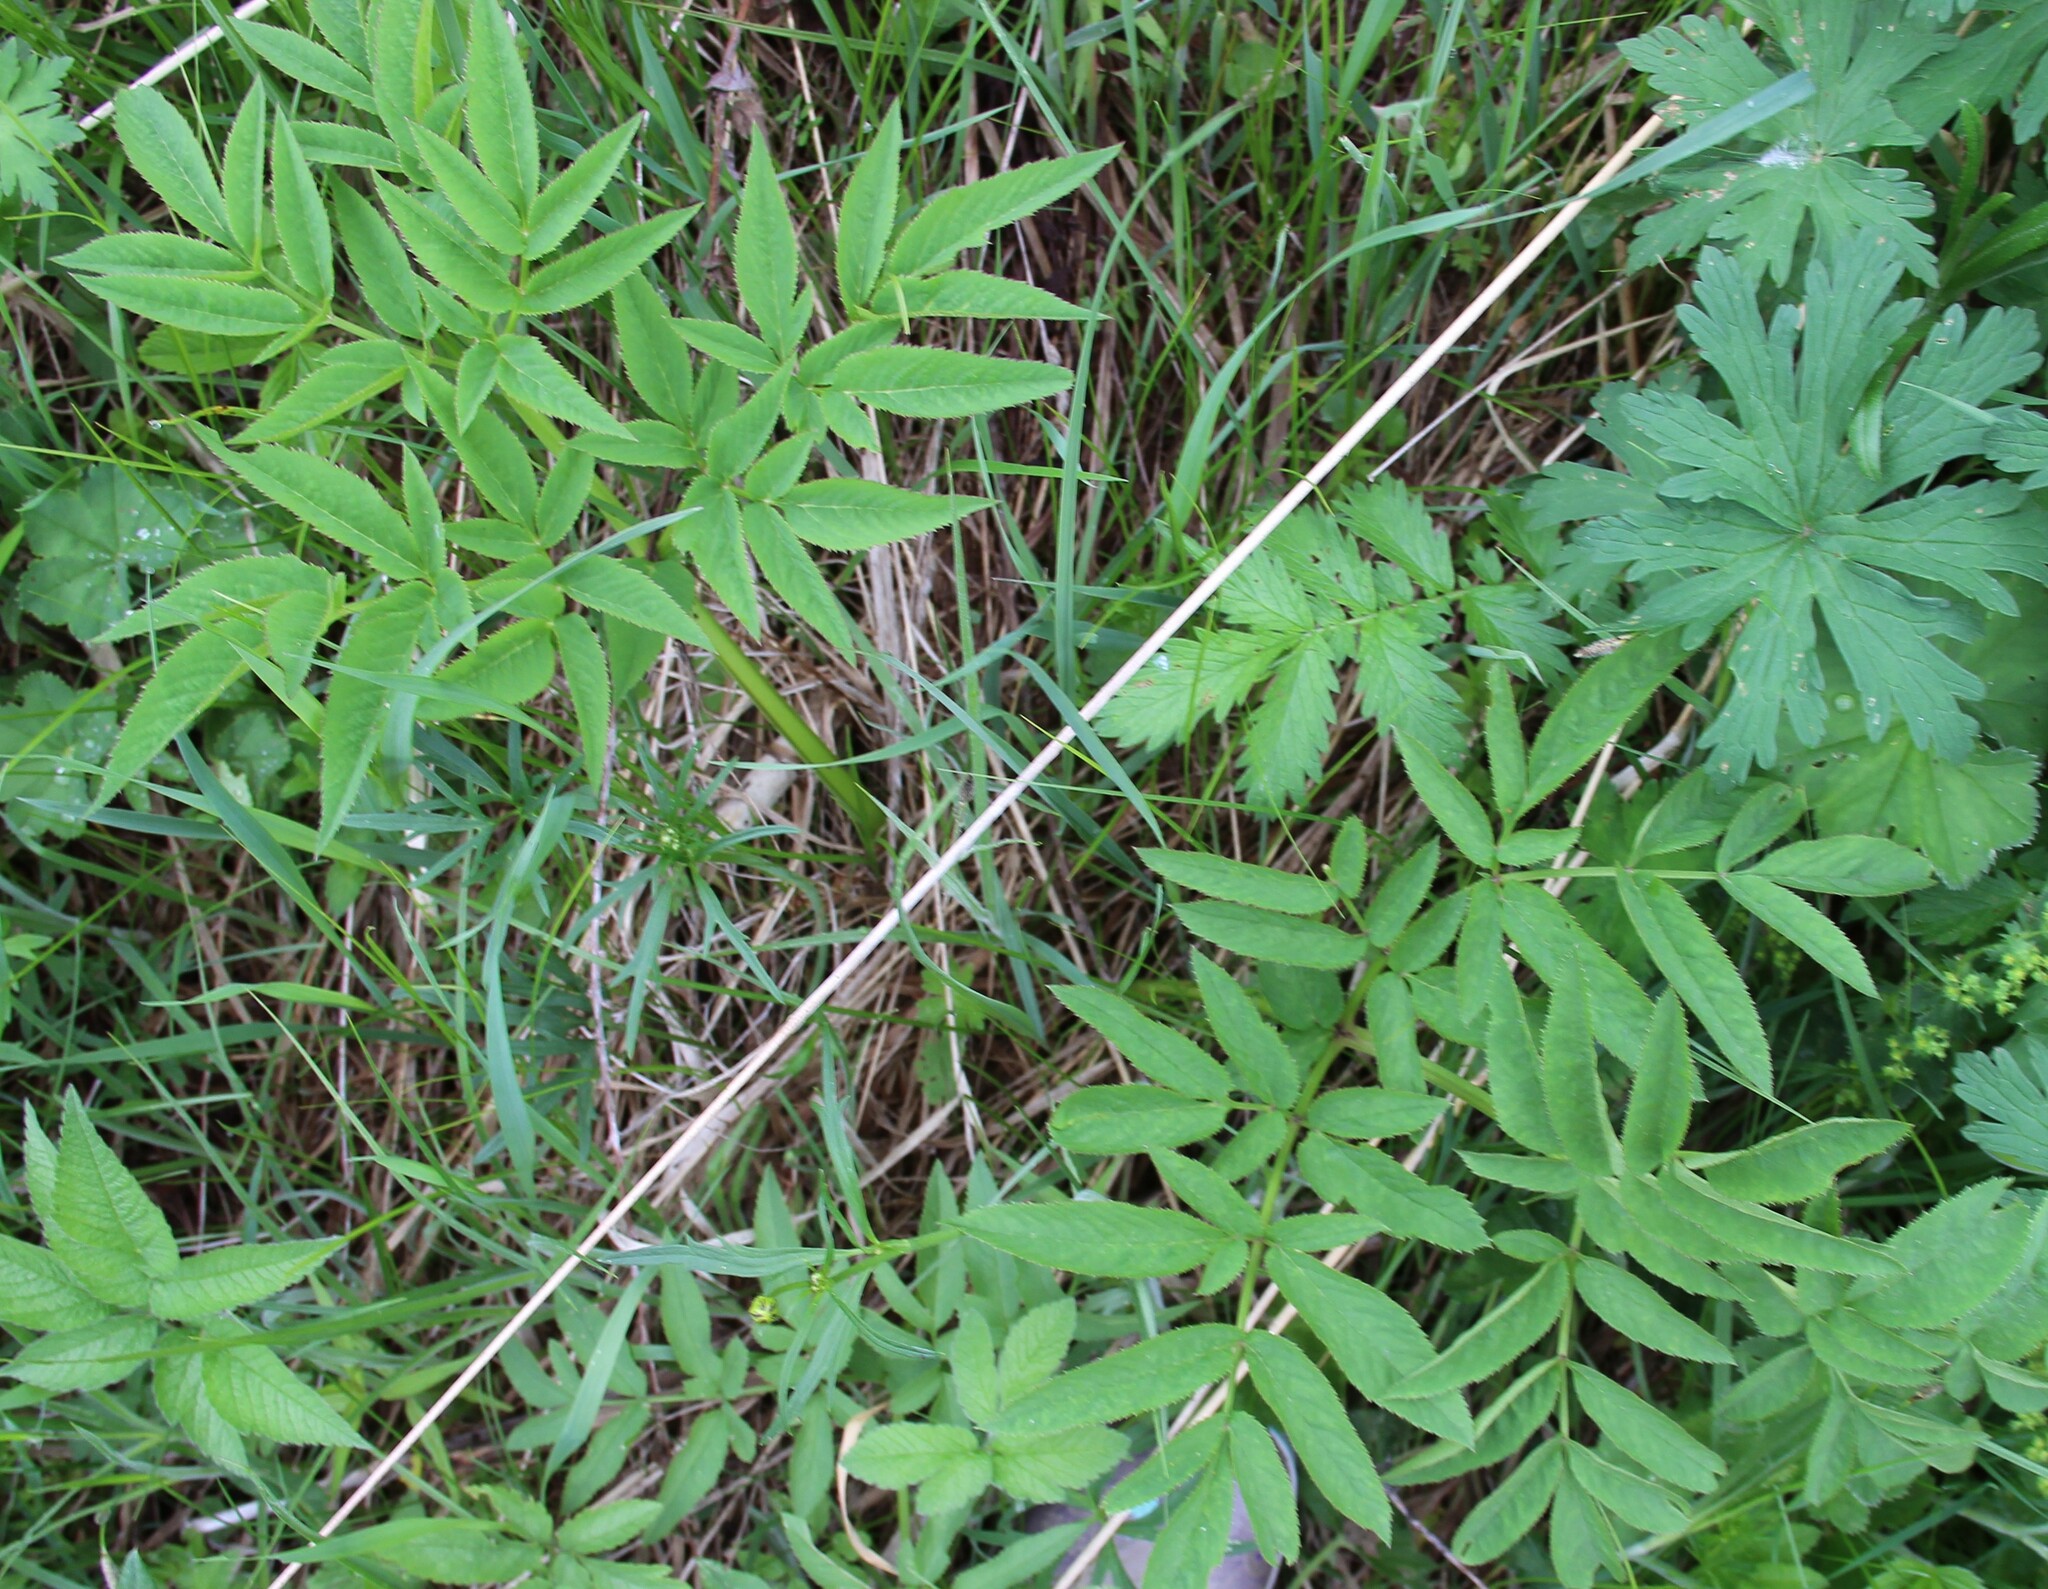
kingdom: Plantae
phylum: Tracheophyta
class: Magnoliopsida
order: Apiales
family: Apiaceae
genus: Angelica
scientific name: Angelica sylvestris
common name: Wild angelica
